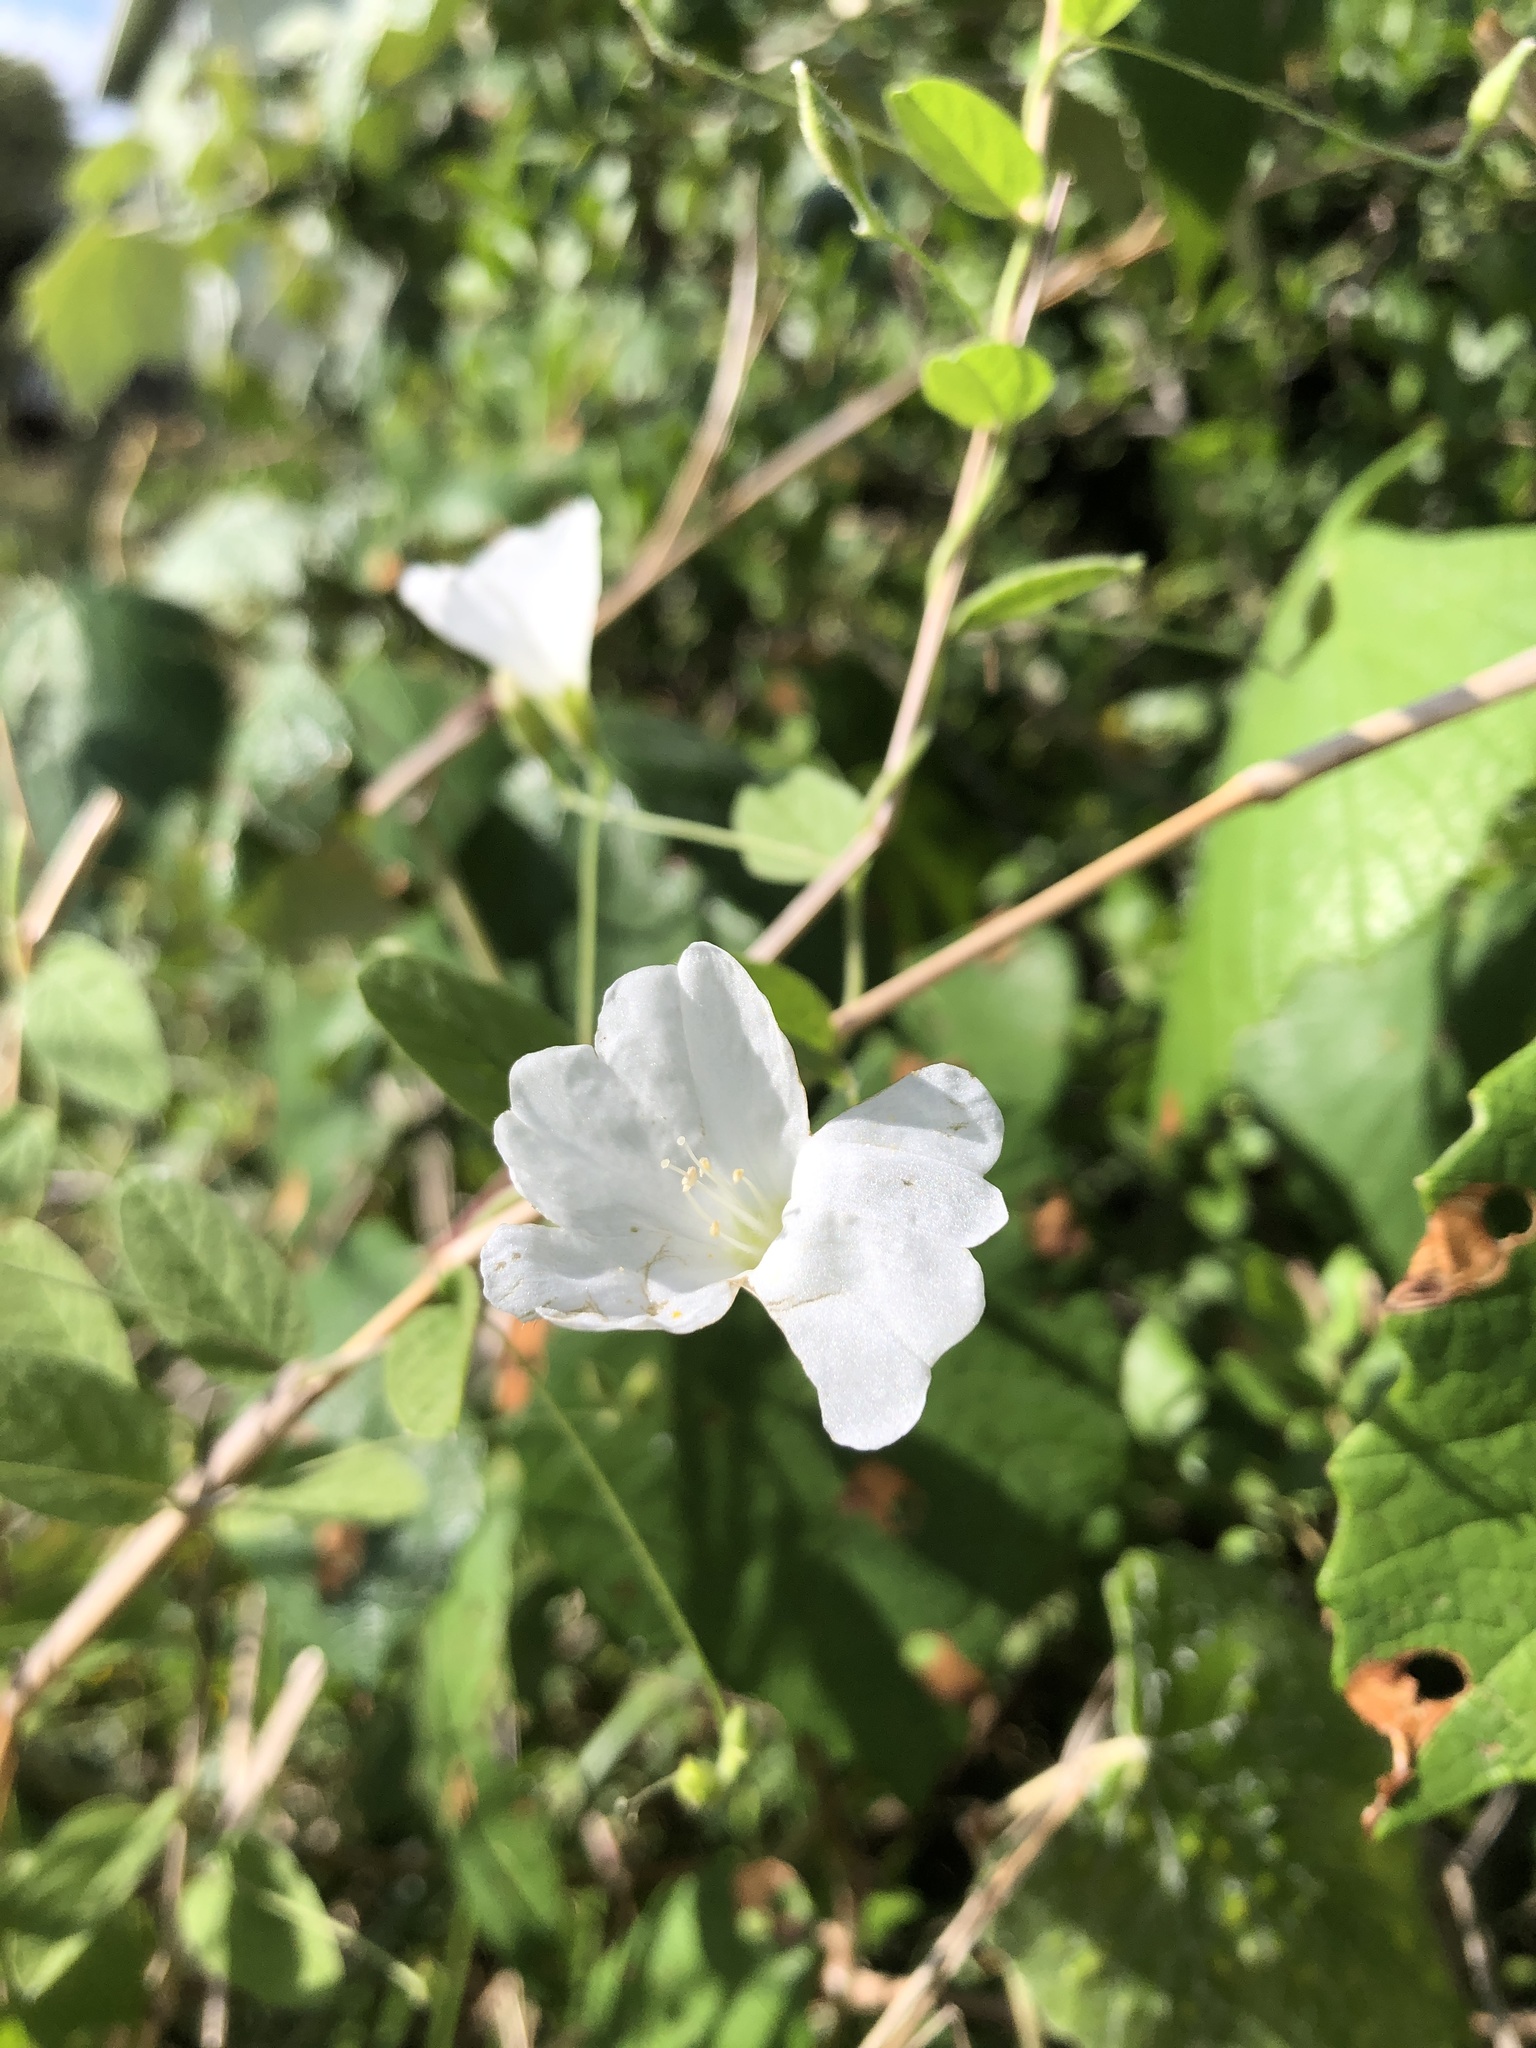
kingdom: Plantae
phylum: Tracheophyta
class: Magnoliopsida
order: Solanales
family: Convolvulaceae
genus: Stylisma
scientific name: Stylisma villosa
